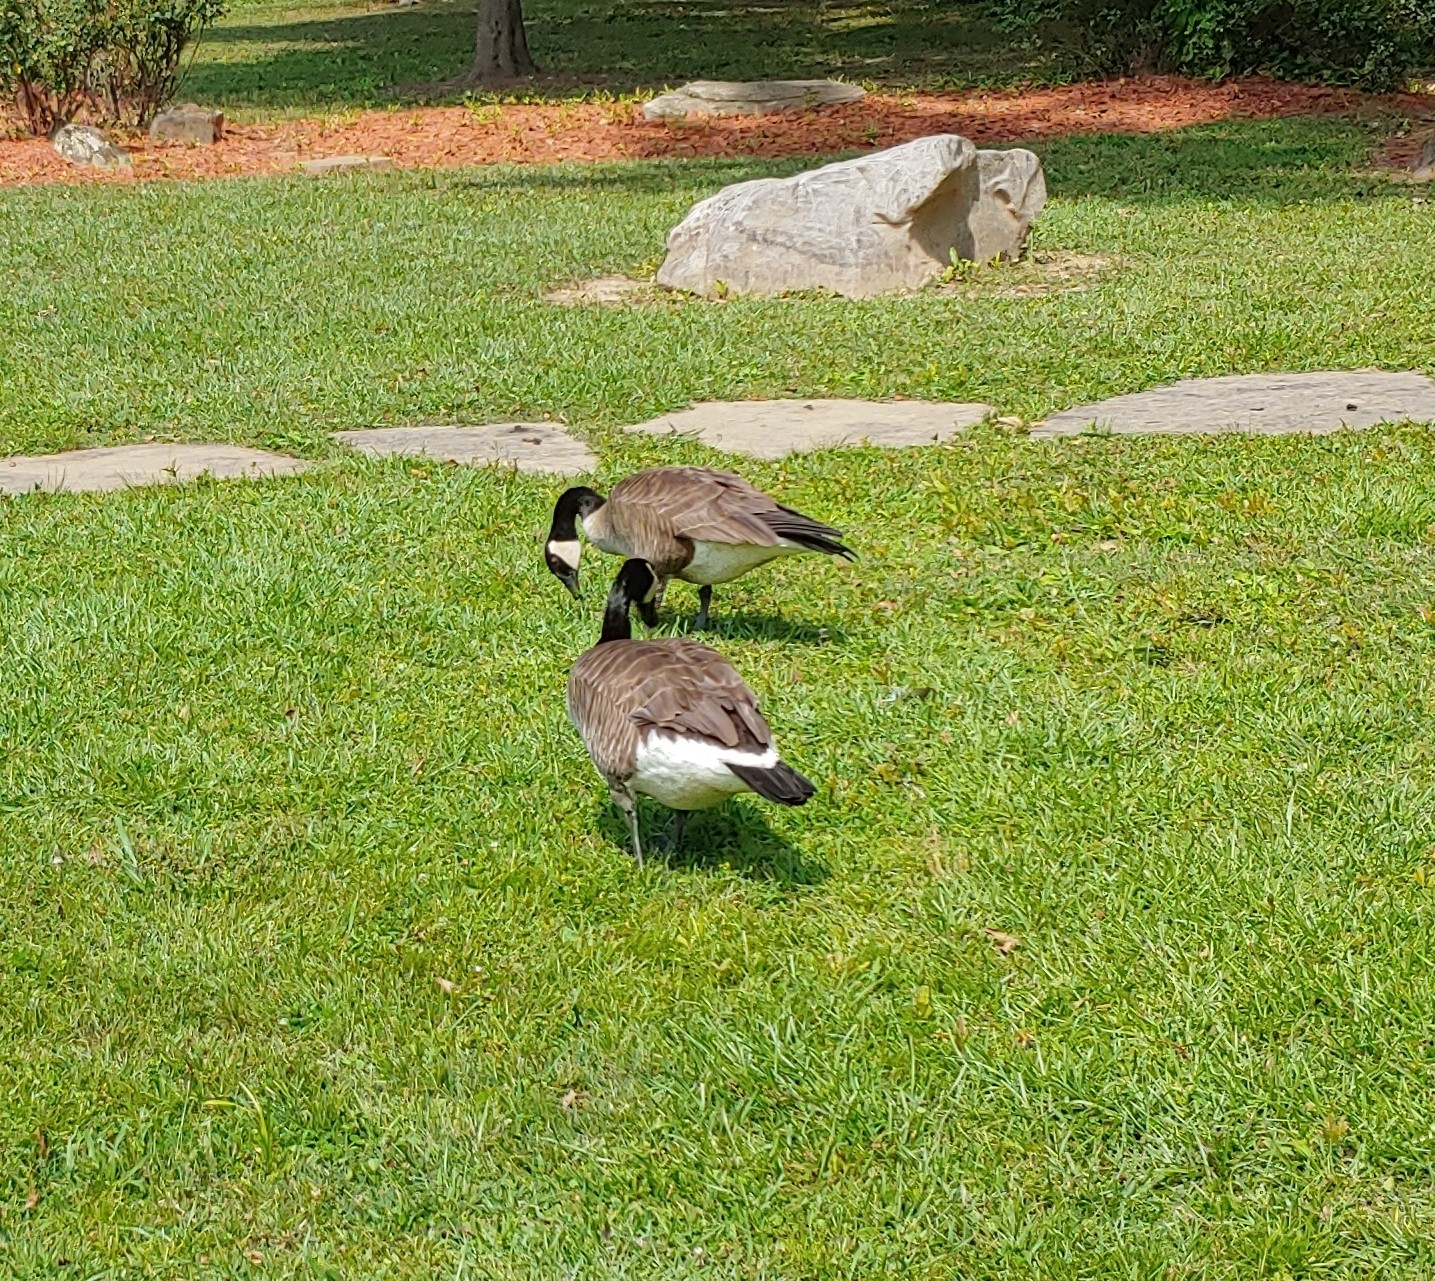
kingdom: Animalia
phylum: Chordata
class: Aves
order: Anseriformes
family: Anatidae
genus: Branta
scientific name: Branta canadensis
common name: Canada goose
